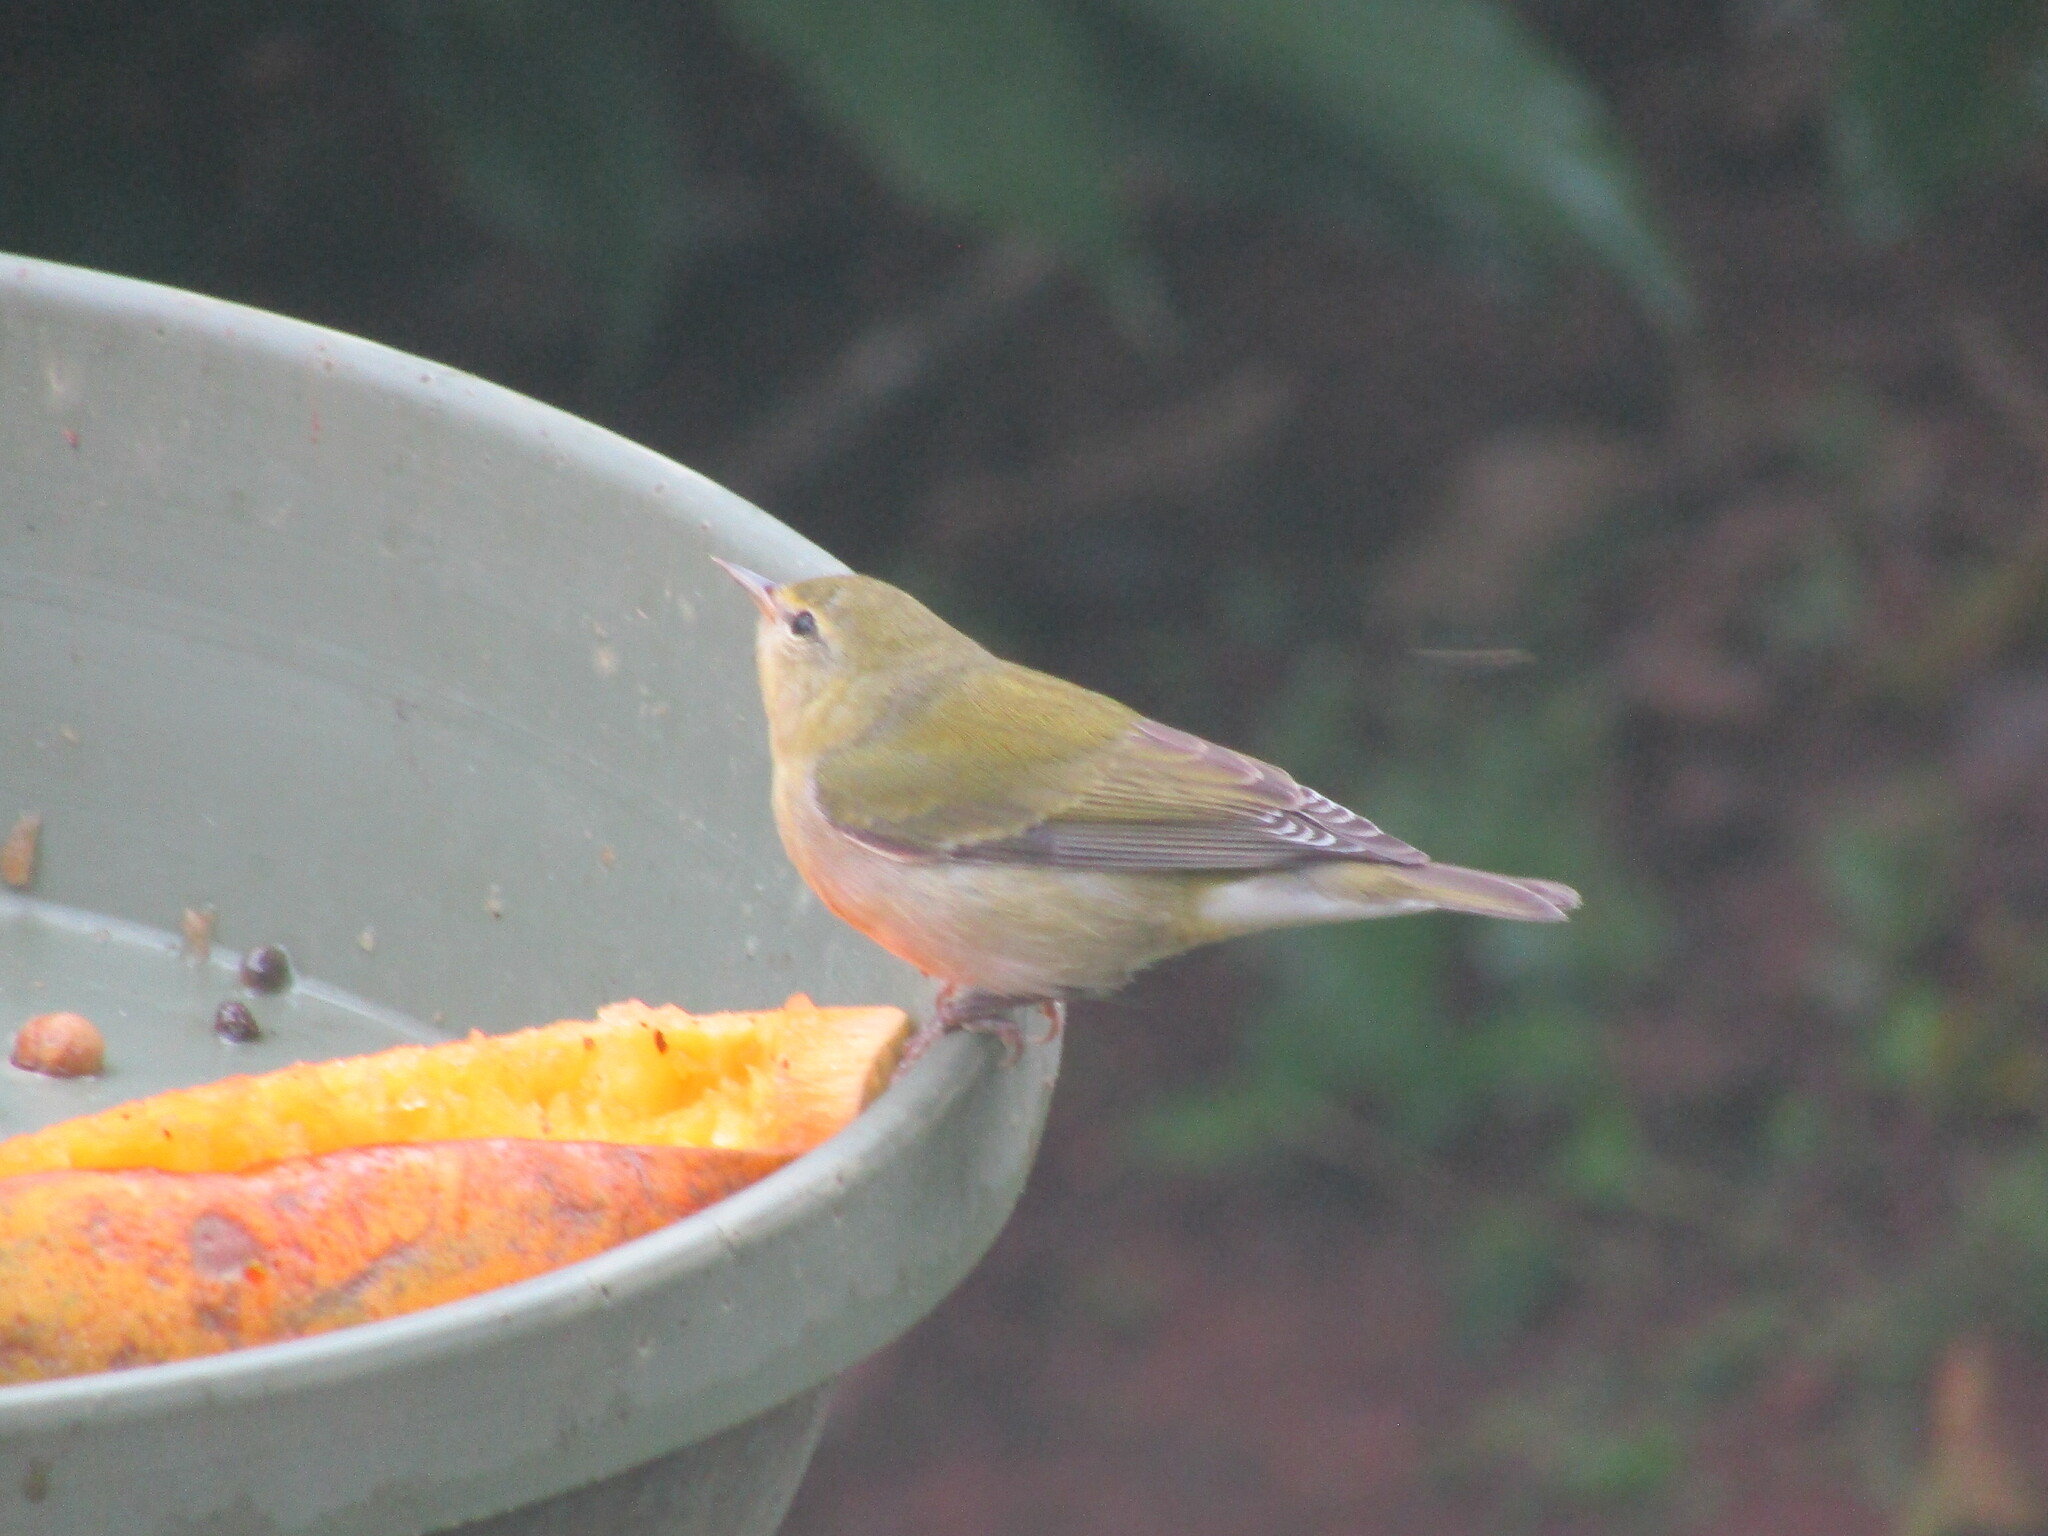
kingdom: Animalia
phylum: Chordata
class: Aves
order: Passeriformes
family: Parulidae
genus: Leiothlypis
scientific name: Leiothlypis peregrina
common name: Tennessee warbler
